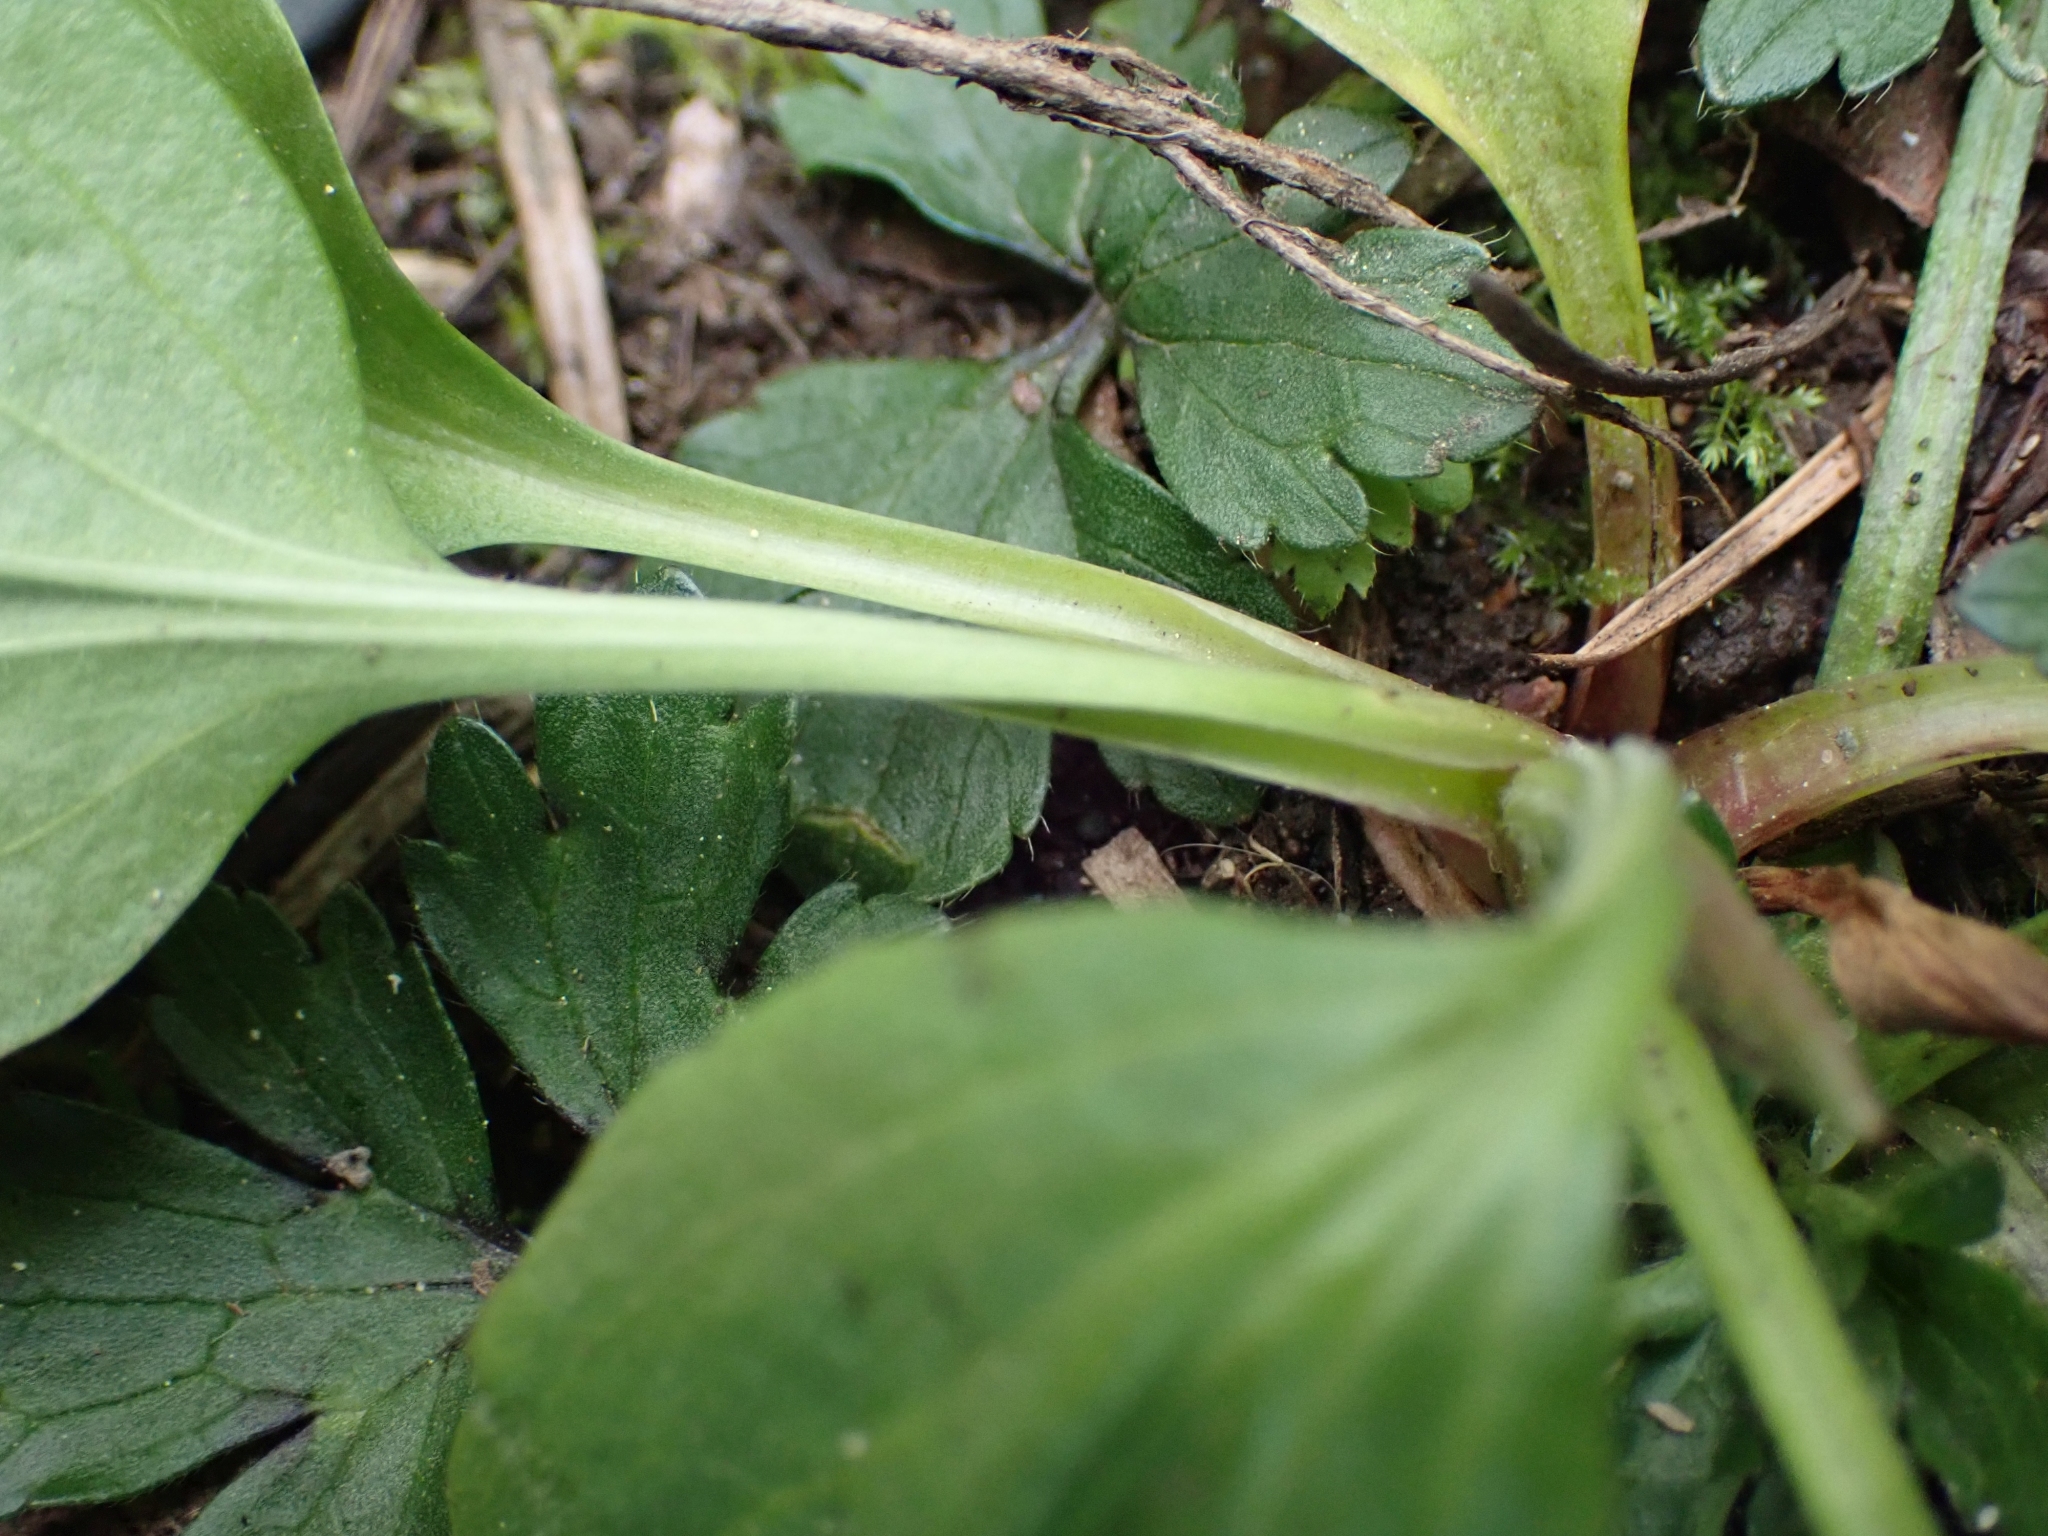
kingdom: Plantae
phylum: Tracheophyta
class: Magnoliopsida
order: Lamiales
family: Plantaginaceae
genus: Plantago
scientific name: Plantago major
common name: Common plantain
